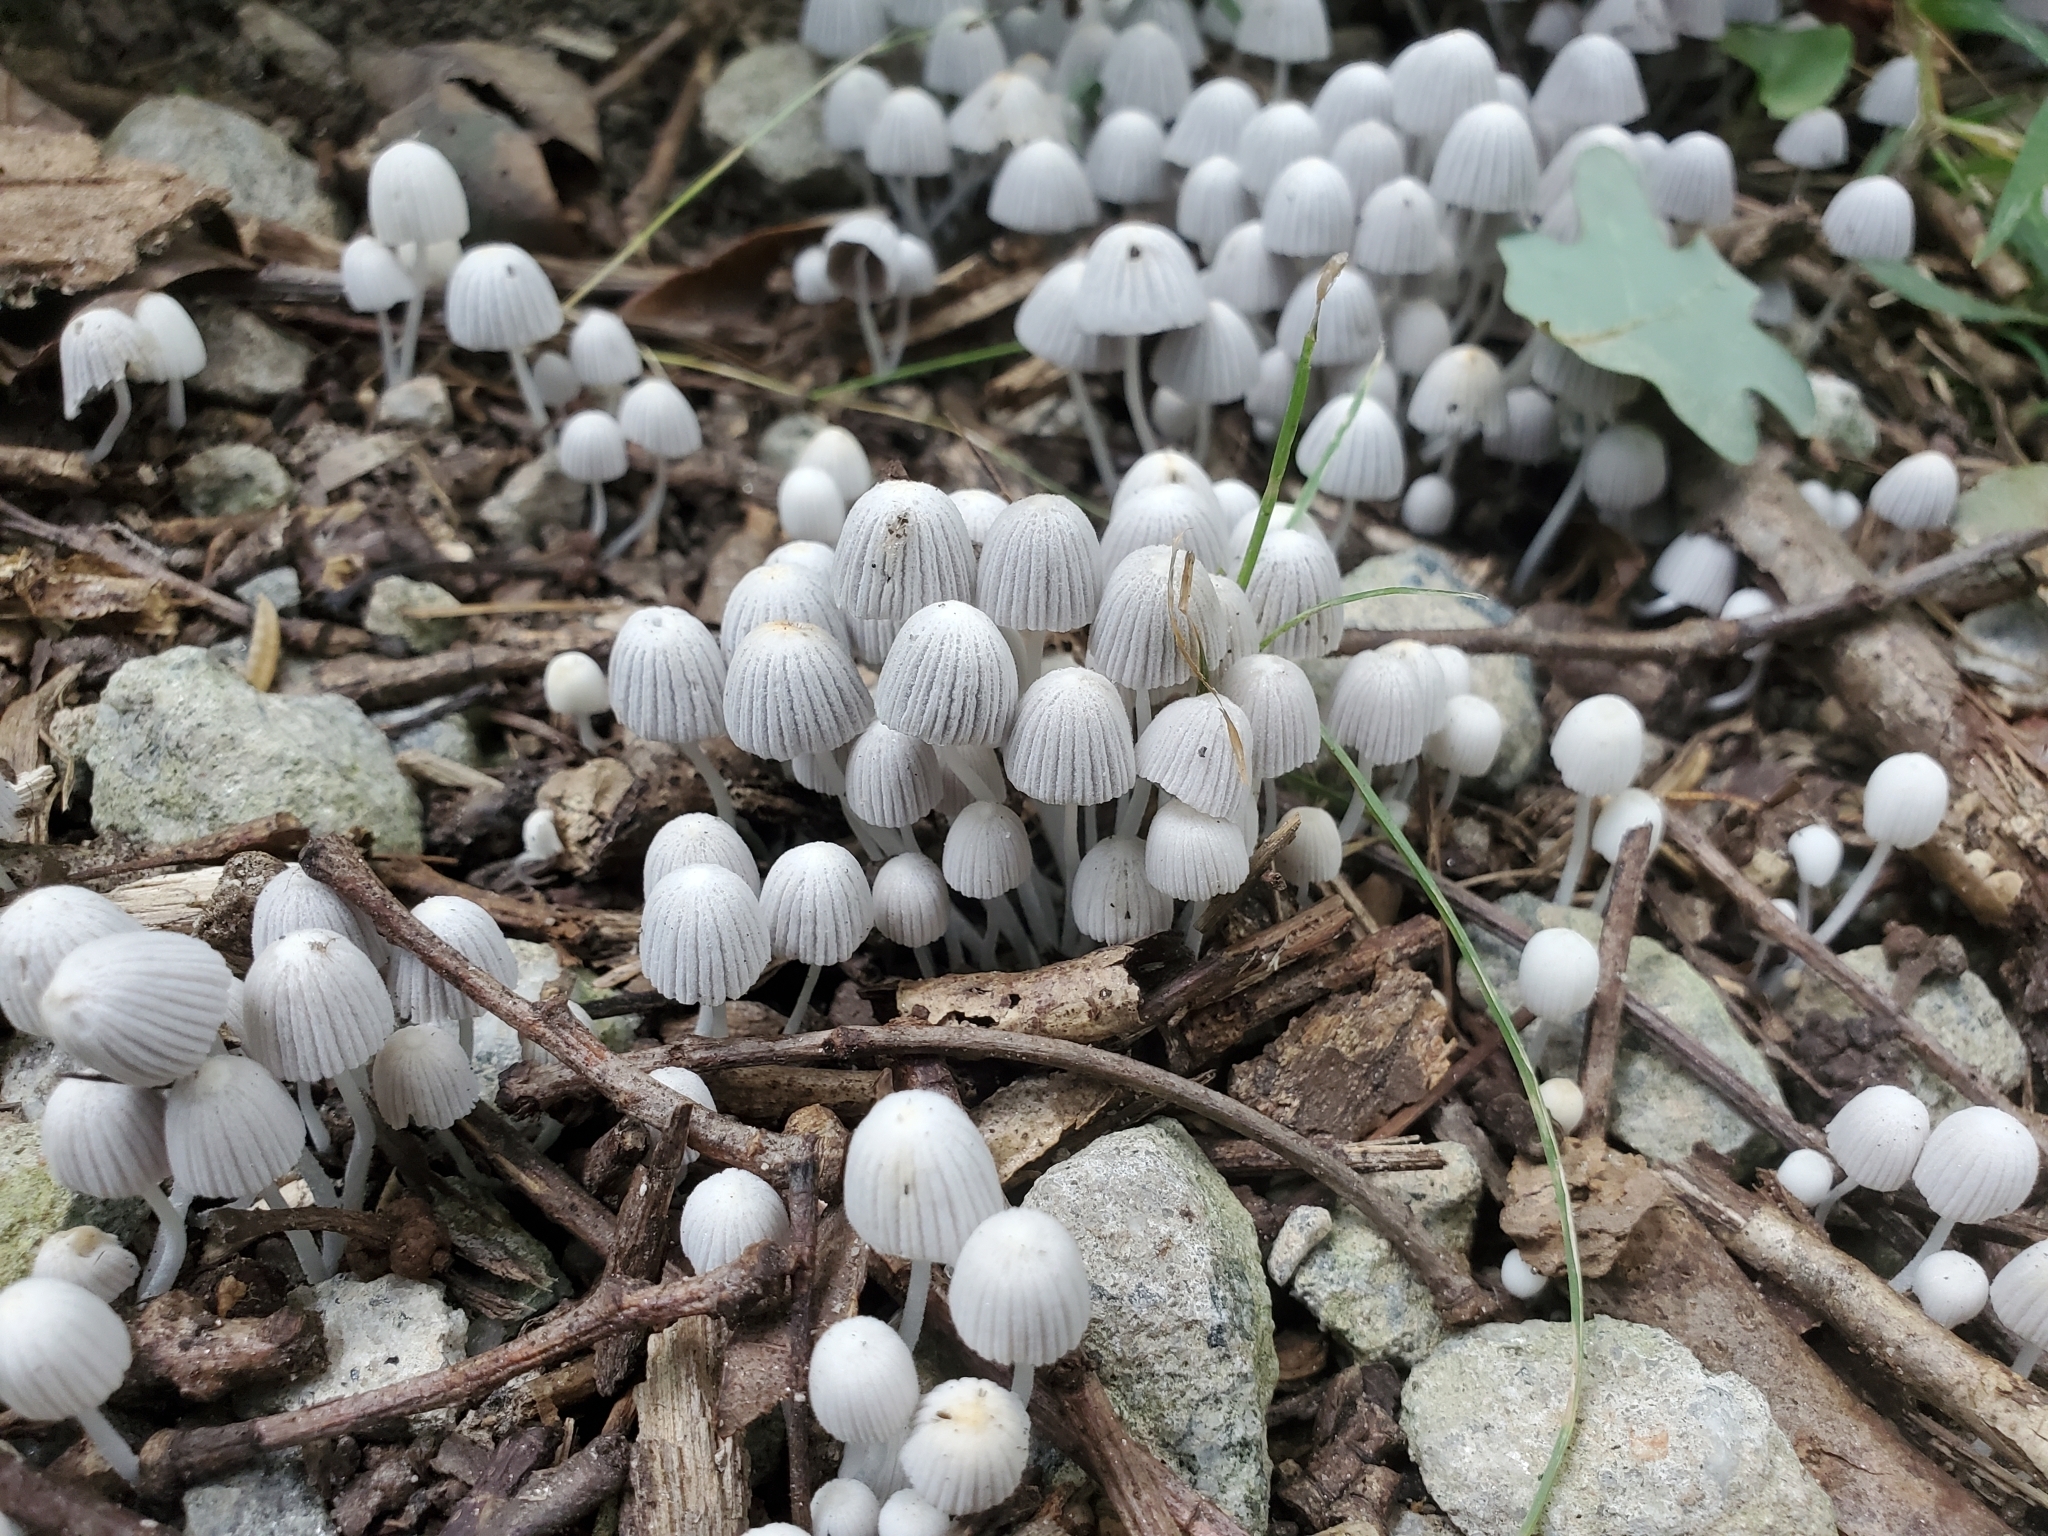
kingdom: Fungi
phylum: Basidiomycota
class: Agaricomycetes
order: Agaricales
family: Psathyrellaceae
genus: Coprinellus
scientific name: Coprinellus disseminatus
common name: Fairies' bonnets
